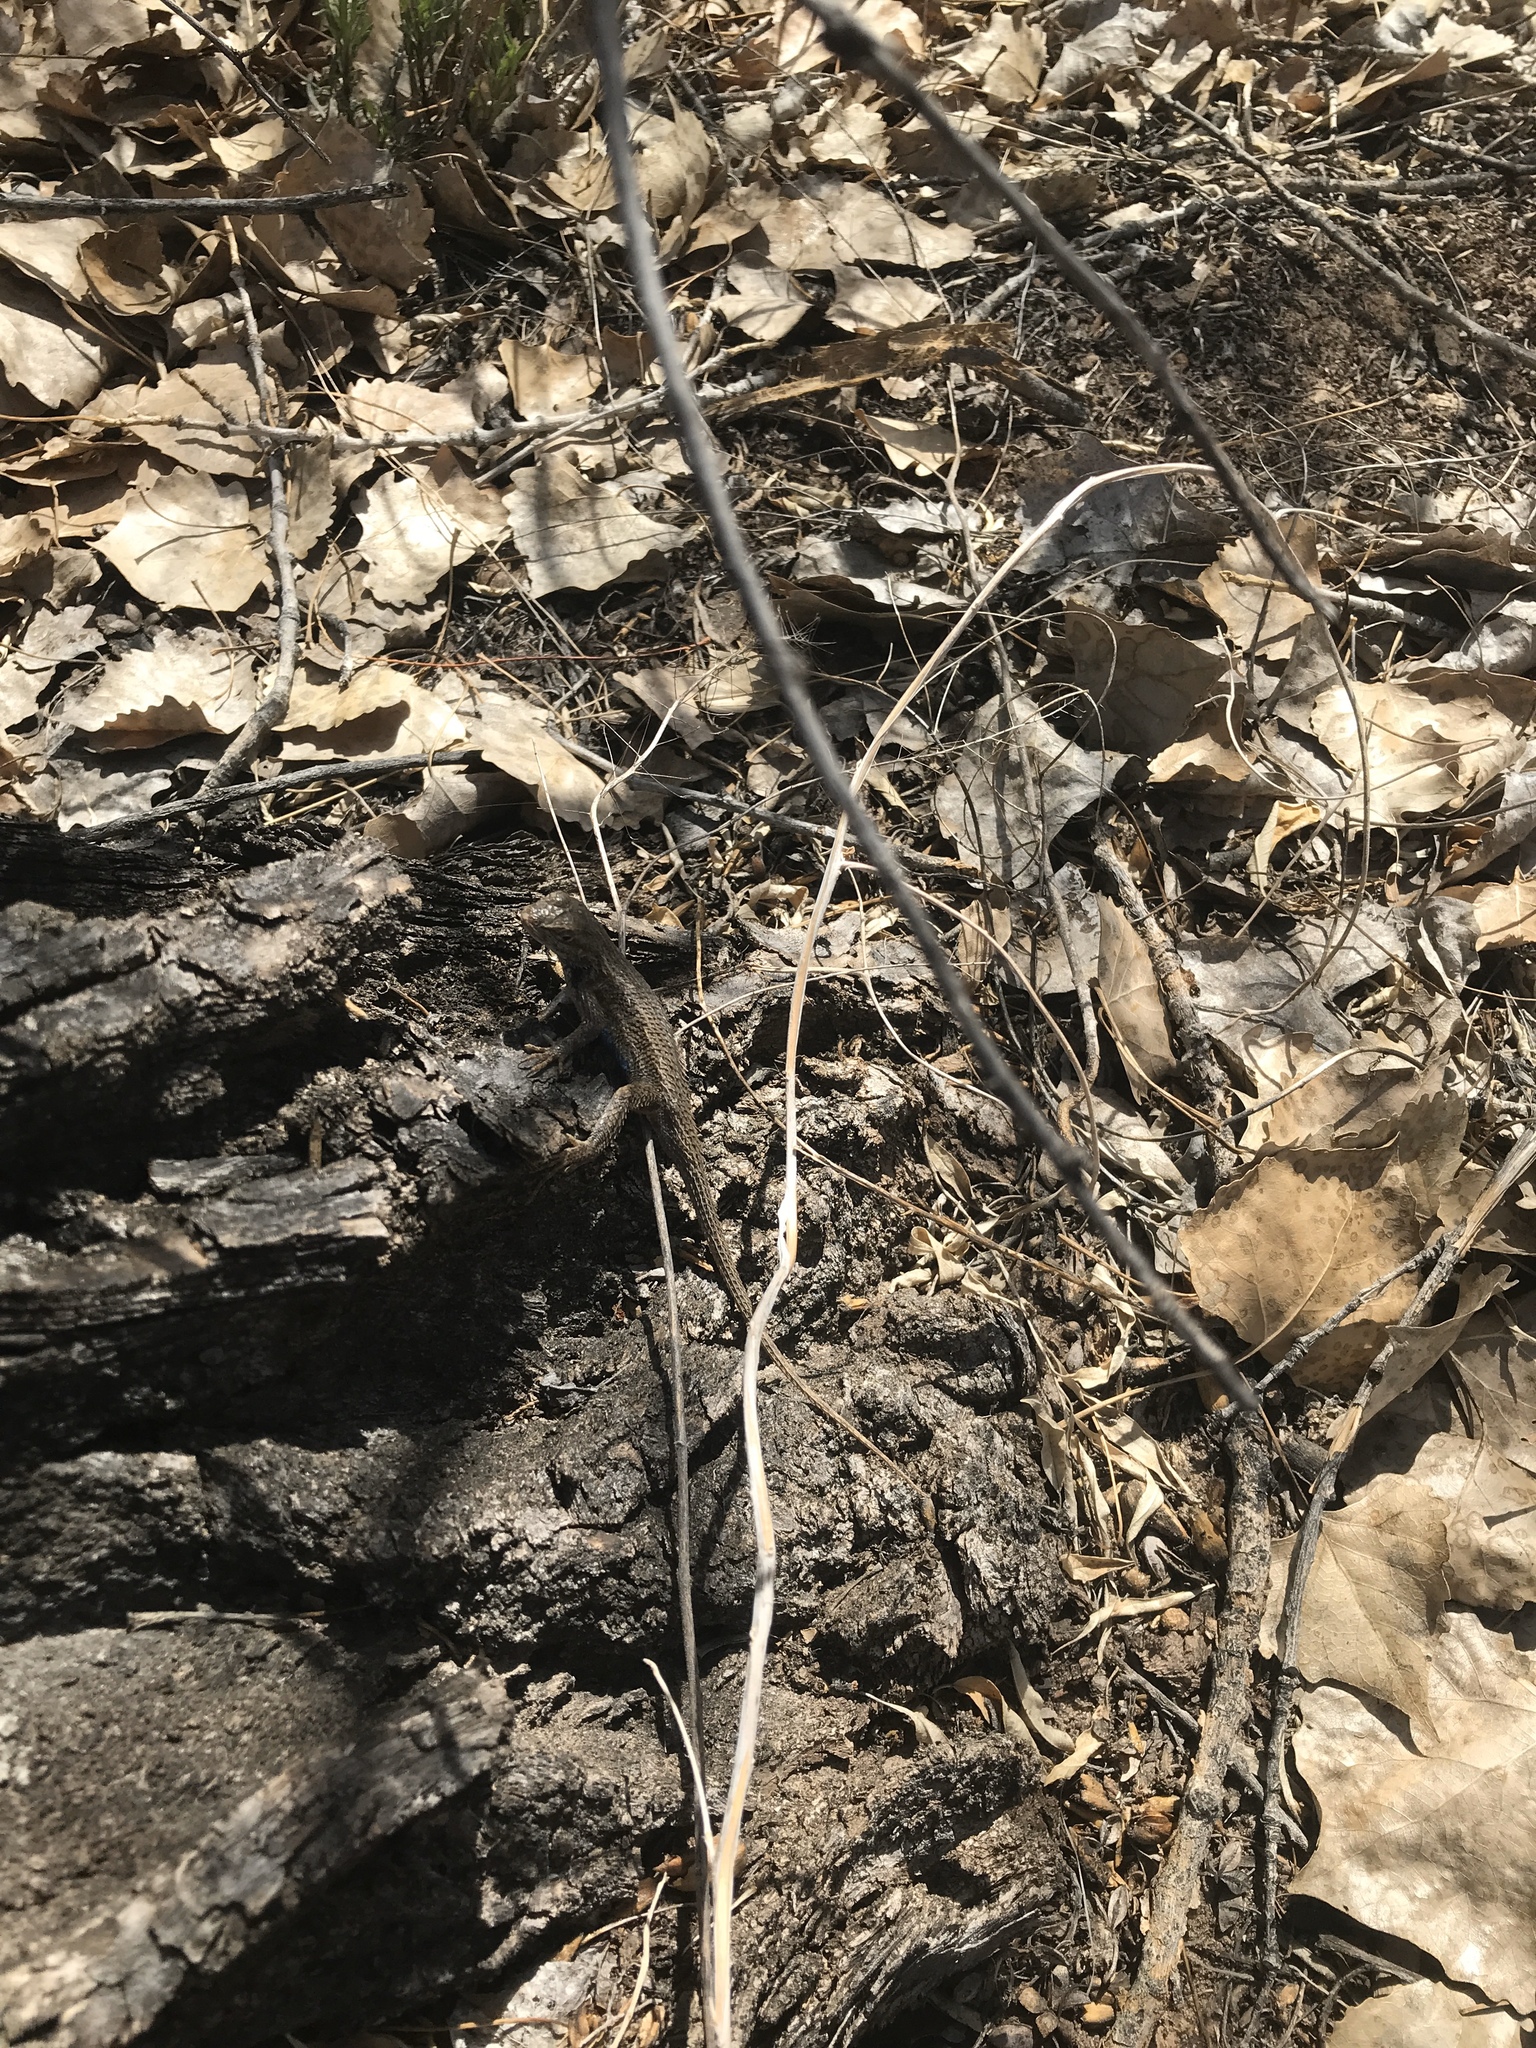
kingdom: Animalia
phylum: Chordata
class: Squamata
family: Phrynosomatidae
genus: Sceloporus
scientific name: Sceloporus cowlesi
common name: White sands prairie lizard
